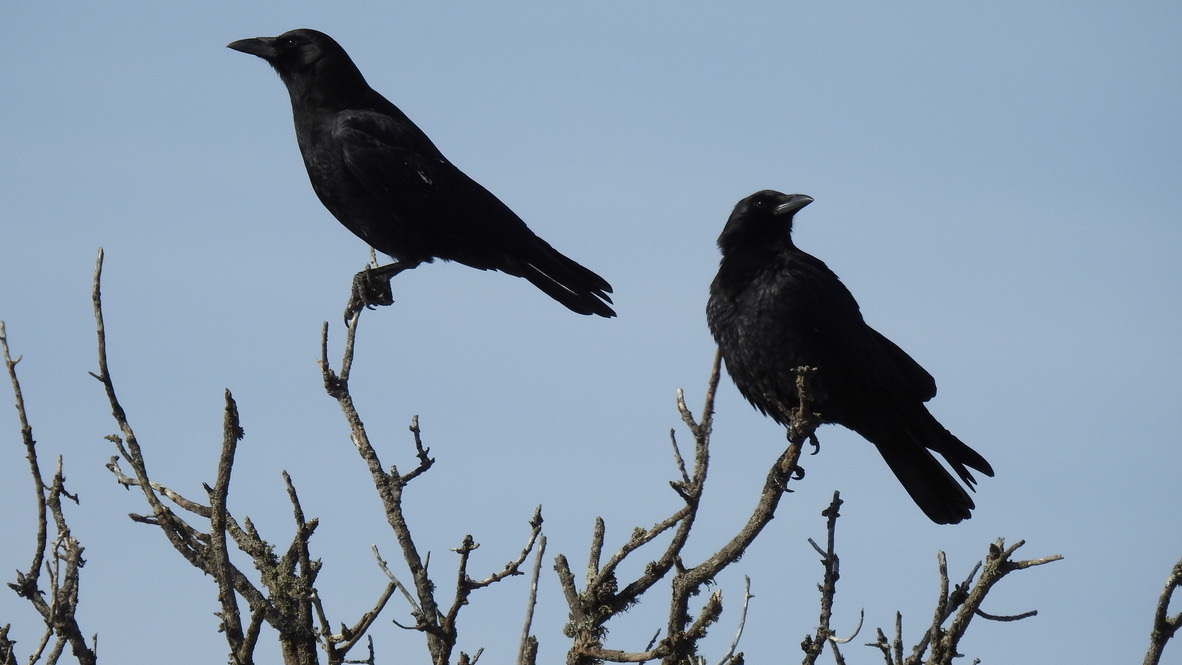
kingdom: Animalia
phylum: Chordata
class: Aves
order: Passeriformes
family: Corvidae
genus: Corvus
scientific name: Corvus brachyrhynchos
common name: American crow
